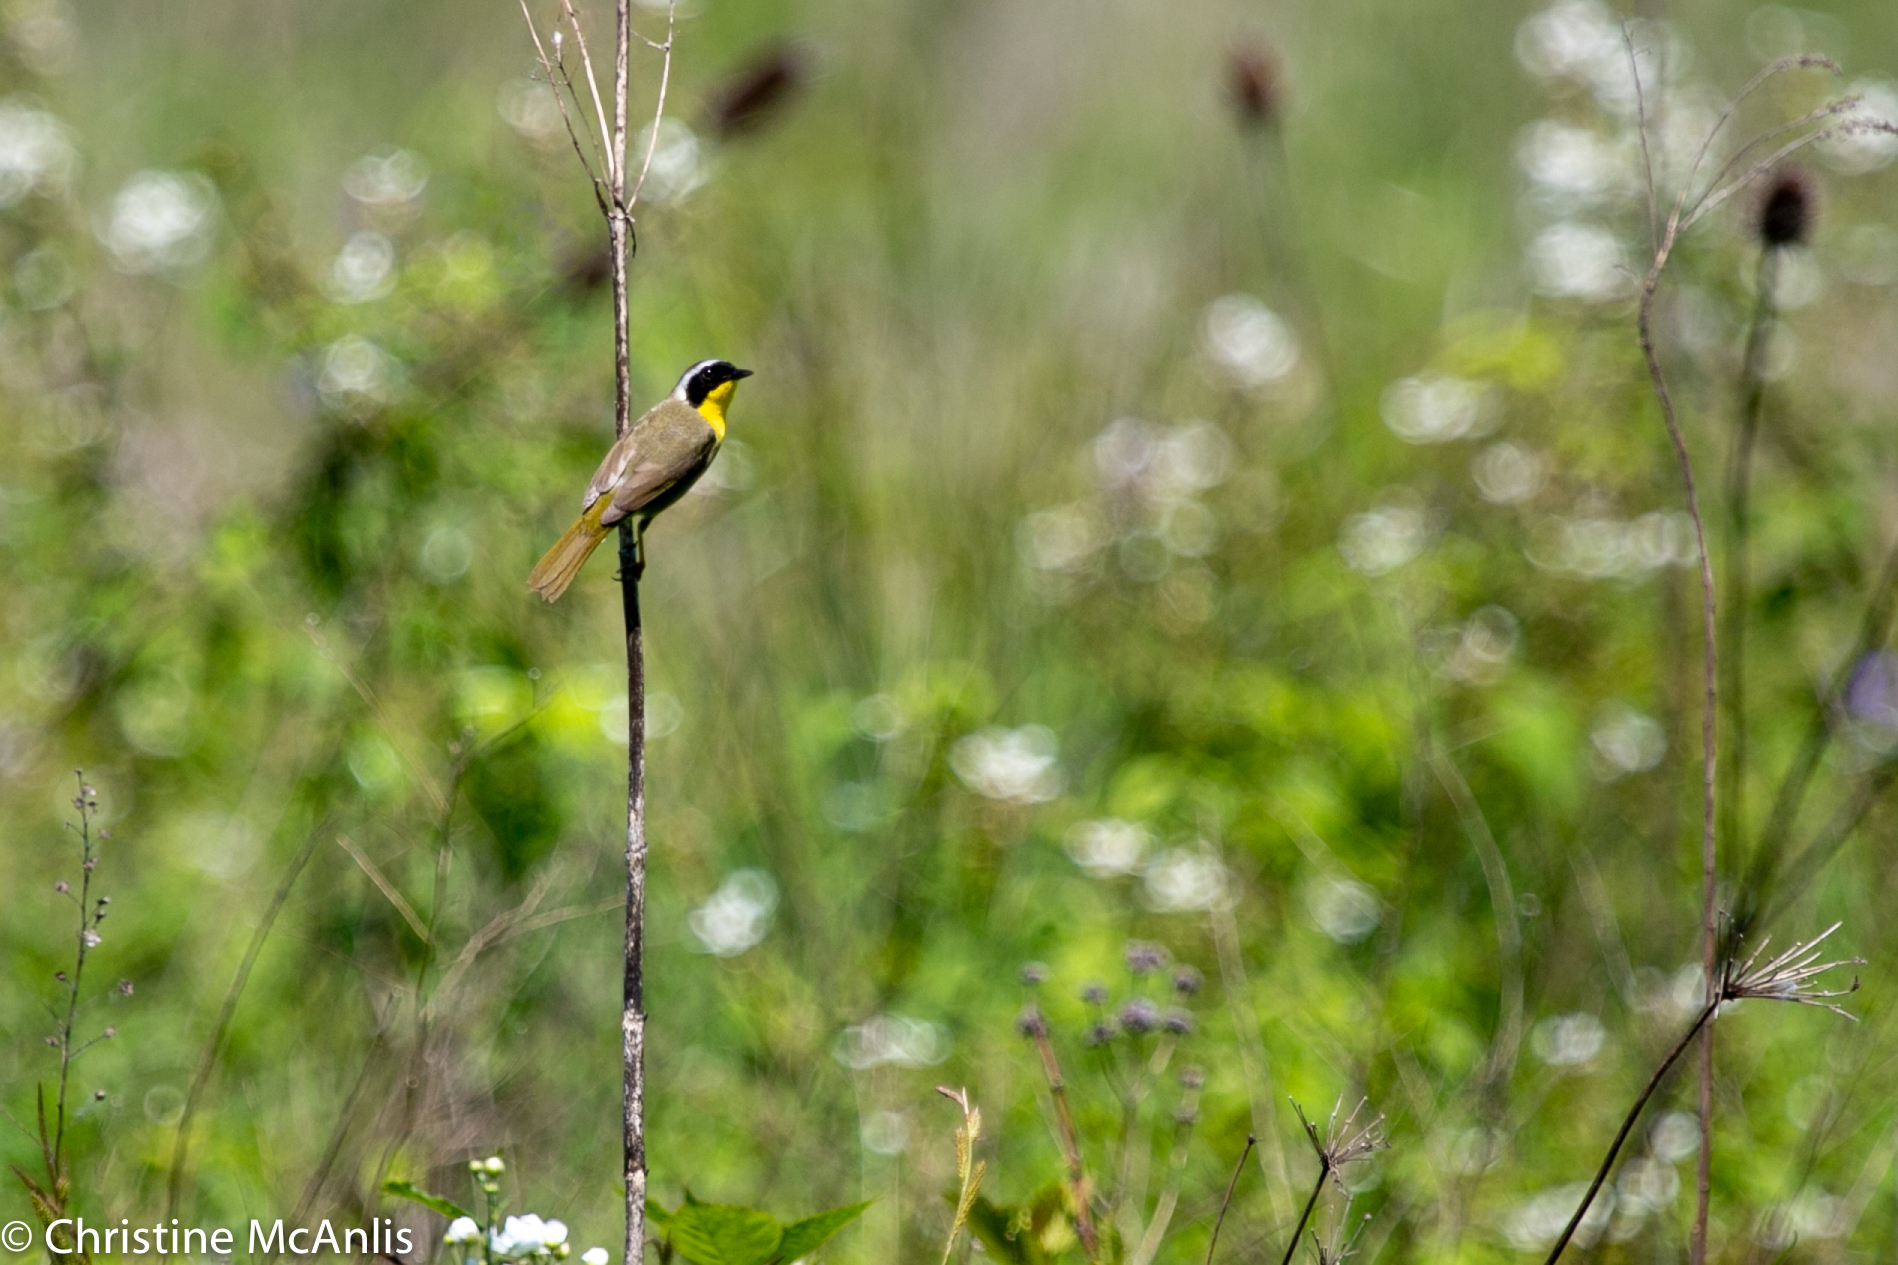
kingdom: Animalia
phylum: Chordata
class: Aves
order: Passeriformes
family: Parulidae
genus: Geothlypis
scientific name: Geothlypis trichas
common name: Common yellowthroat
